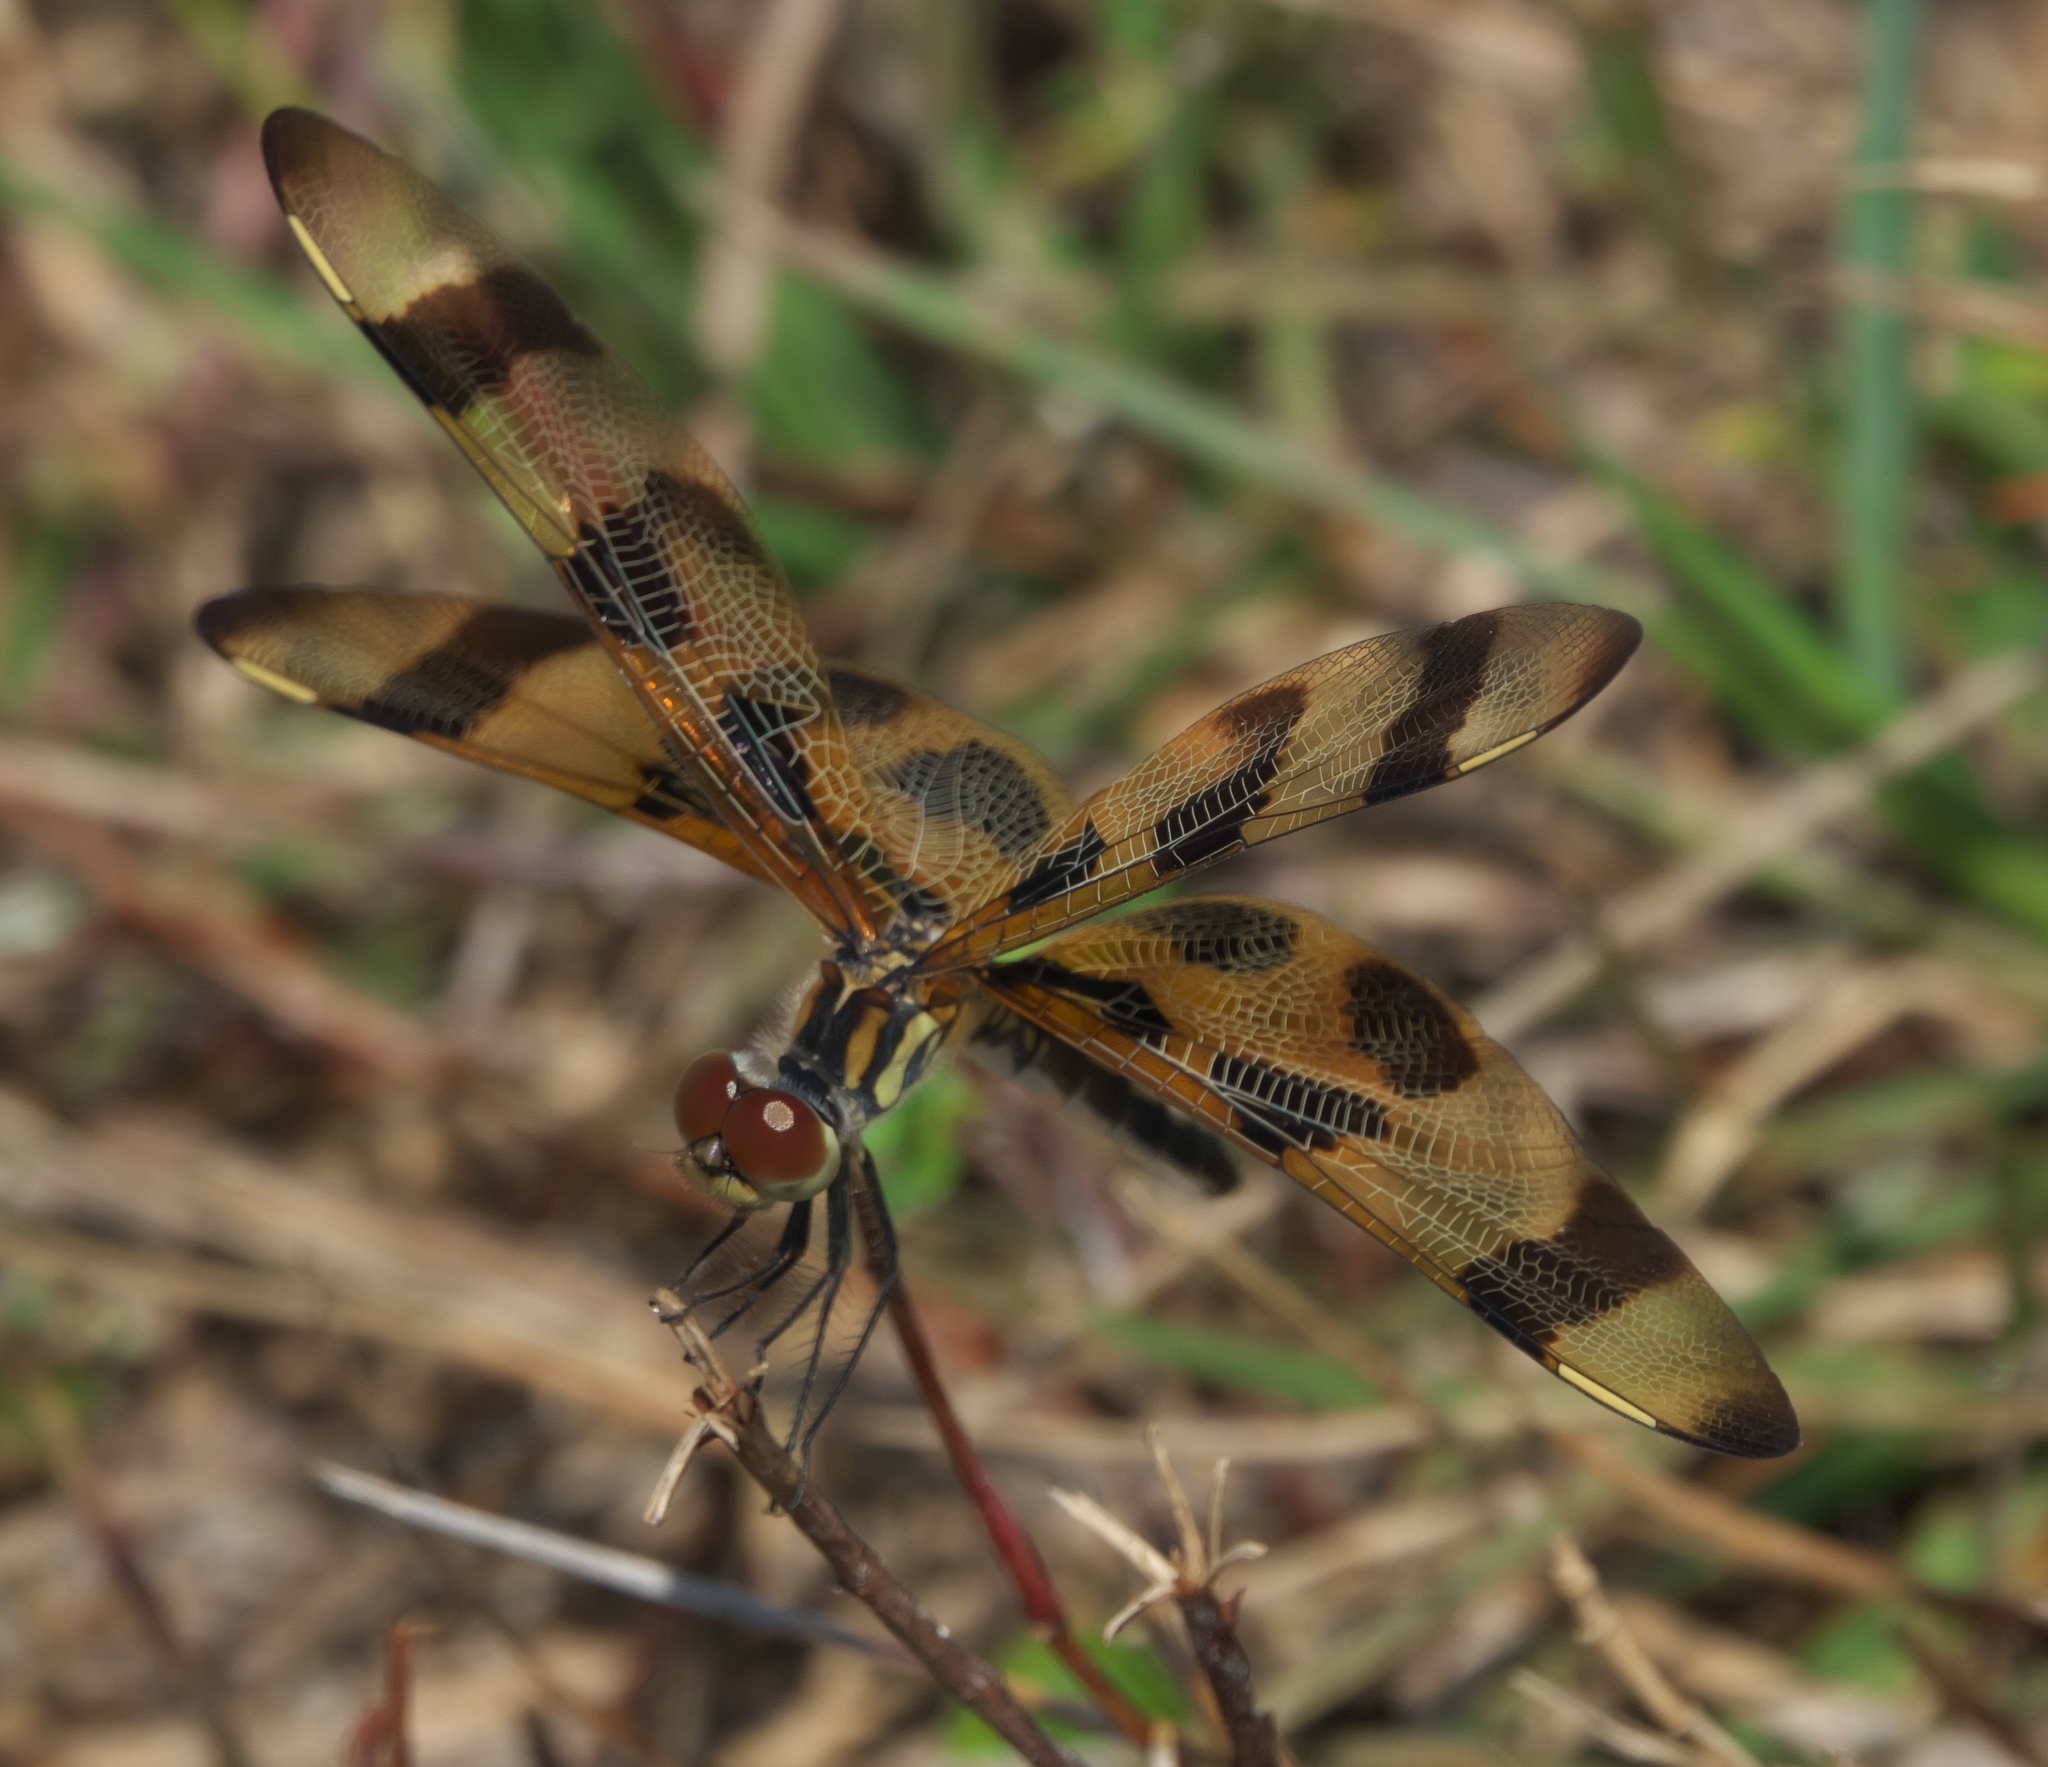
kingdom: Animalia
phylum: Arthropoda
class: Insecta
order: Odonata
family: Libellulidae
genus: Celithemis
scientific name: Celithemis eponina
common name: Halloween pennant
